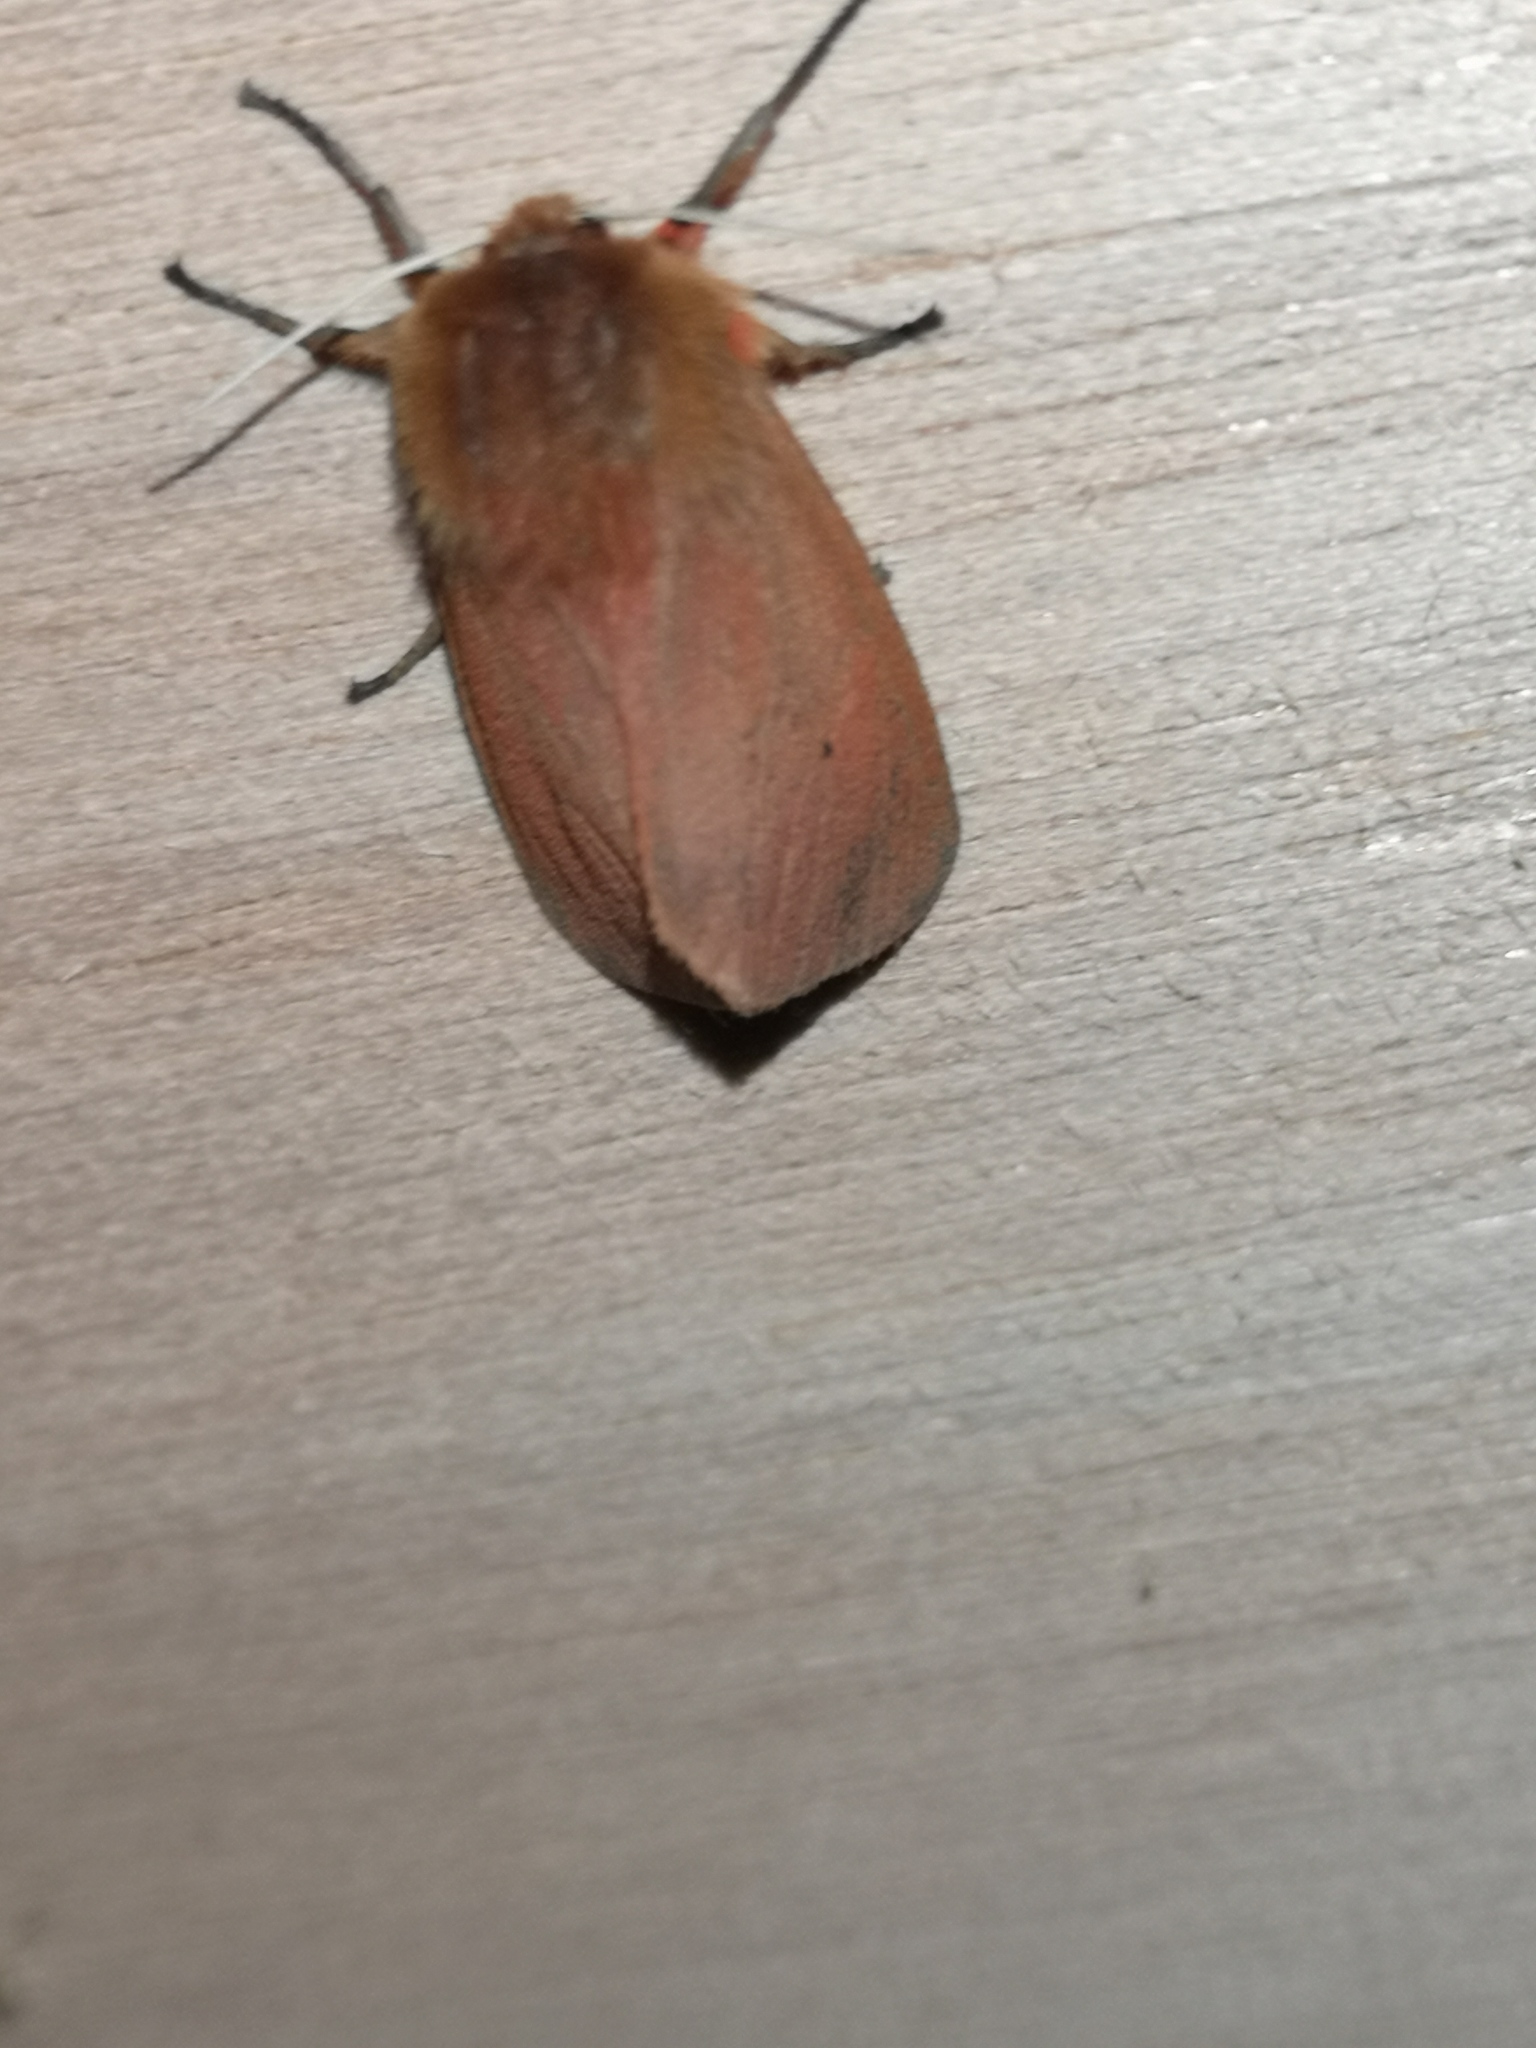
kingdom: Animalia
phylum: Arthropoda
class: Insecta
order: Lepidoptera
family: Erebidae
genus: Phragmatobia
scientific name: Phragmatobia fuliginosa
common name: Ruby tiger
